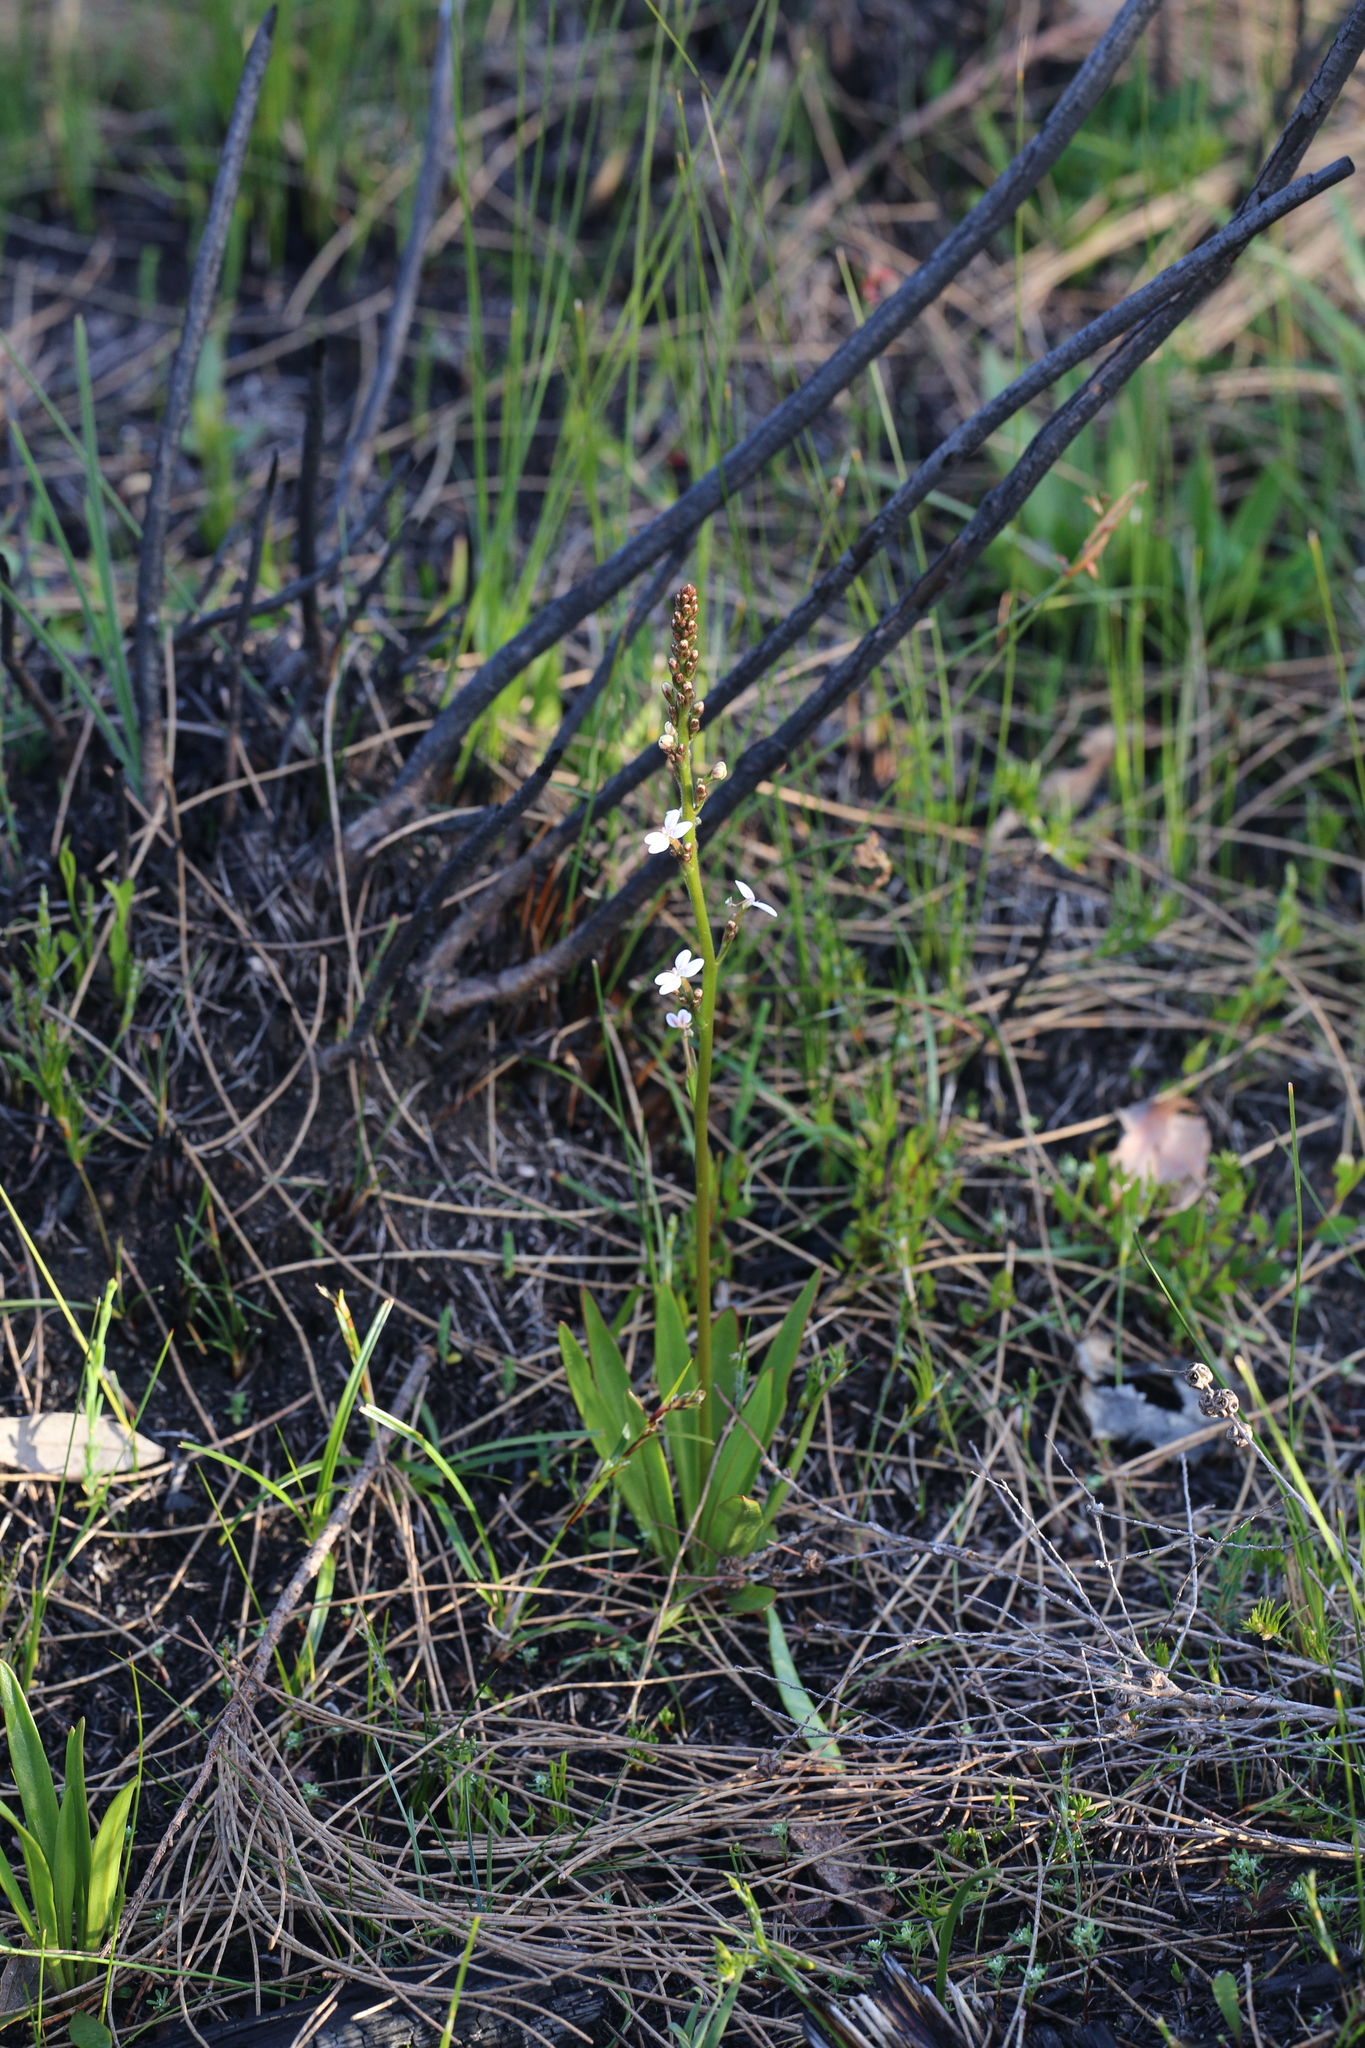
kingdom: Plantae
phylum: Tracheophyta
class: Magnoliopsida
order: Asterales
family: Stylidiaceae
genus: Stylidium
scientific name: Stylidium crassifolium
